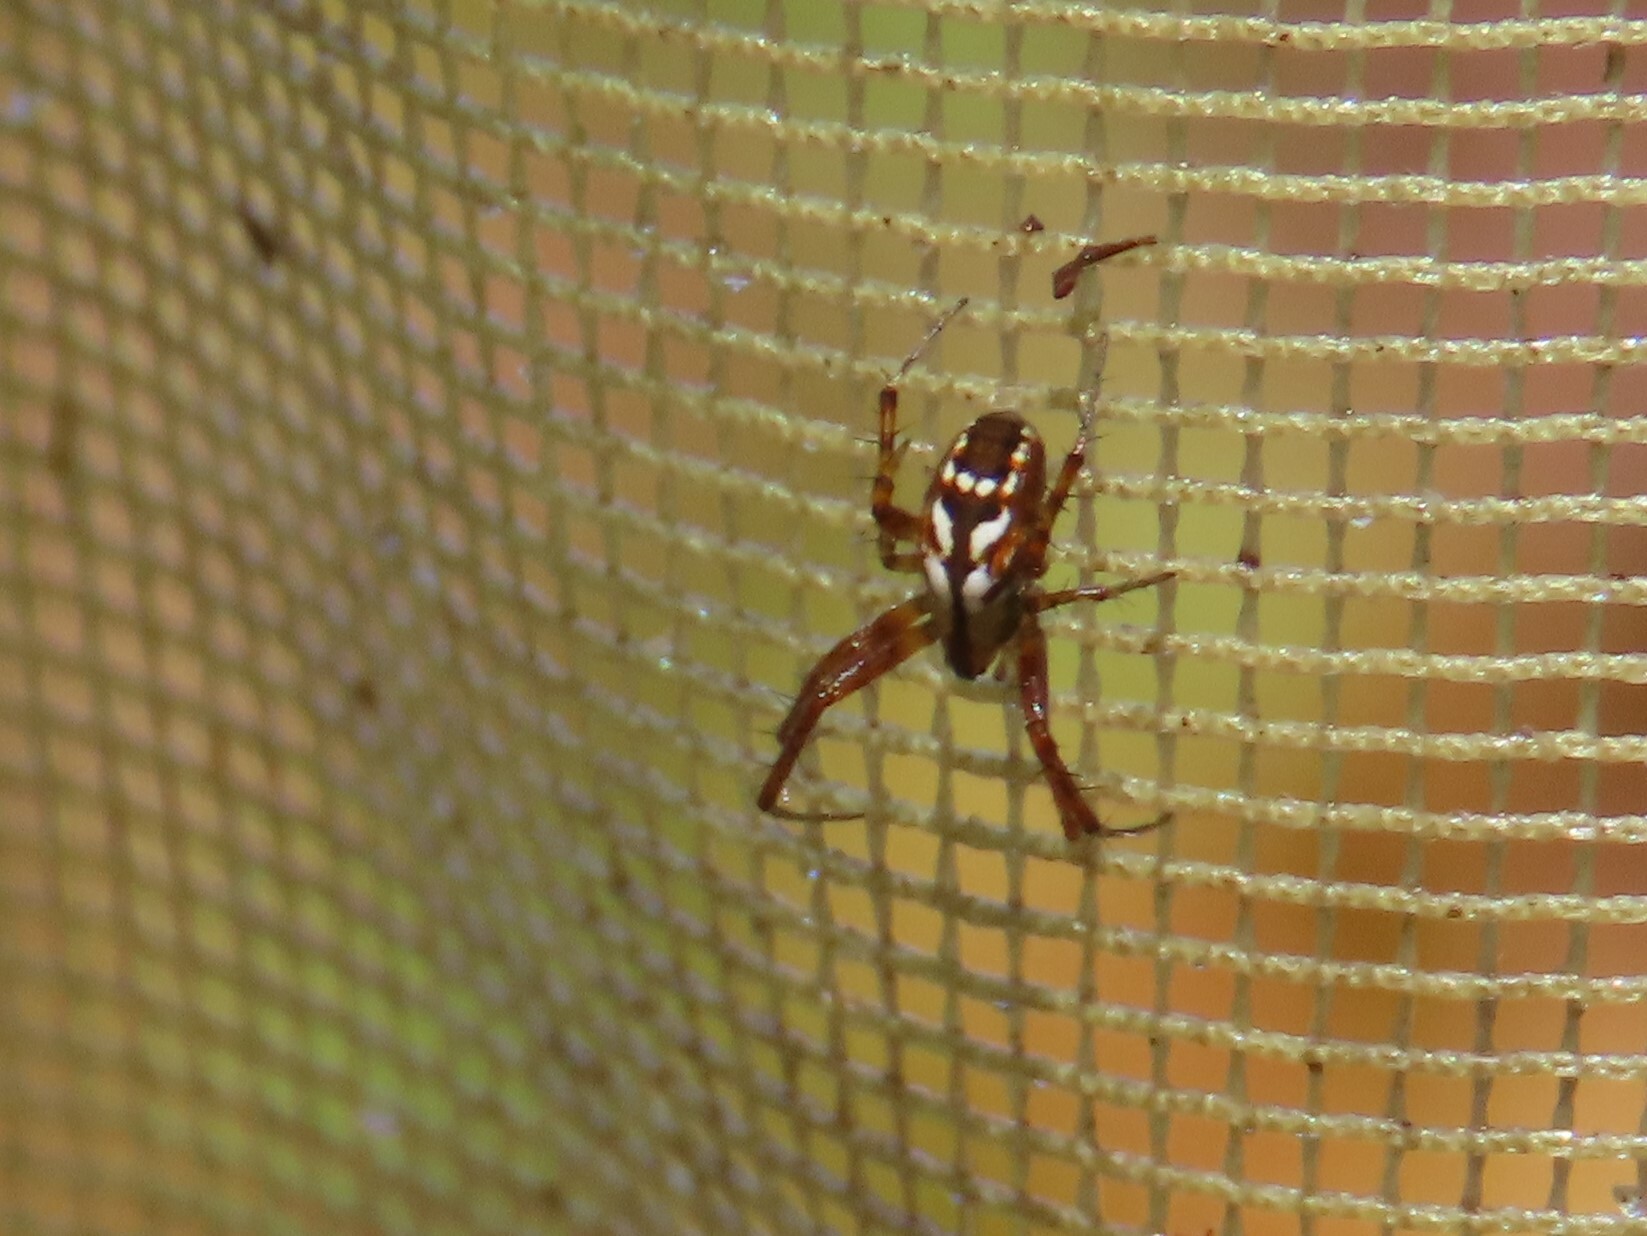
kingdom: Animalia
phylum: Arthropoda
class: Arachnida
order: Araneae
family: Araneidae
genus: Mangora
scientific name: Mangora placida
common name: Tuft-legged orbweaver
